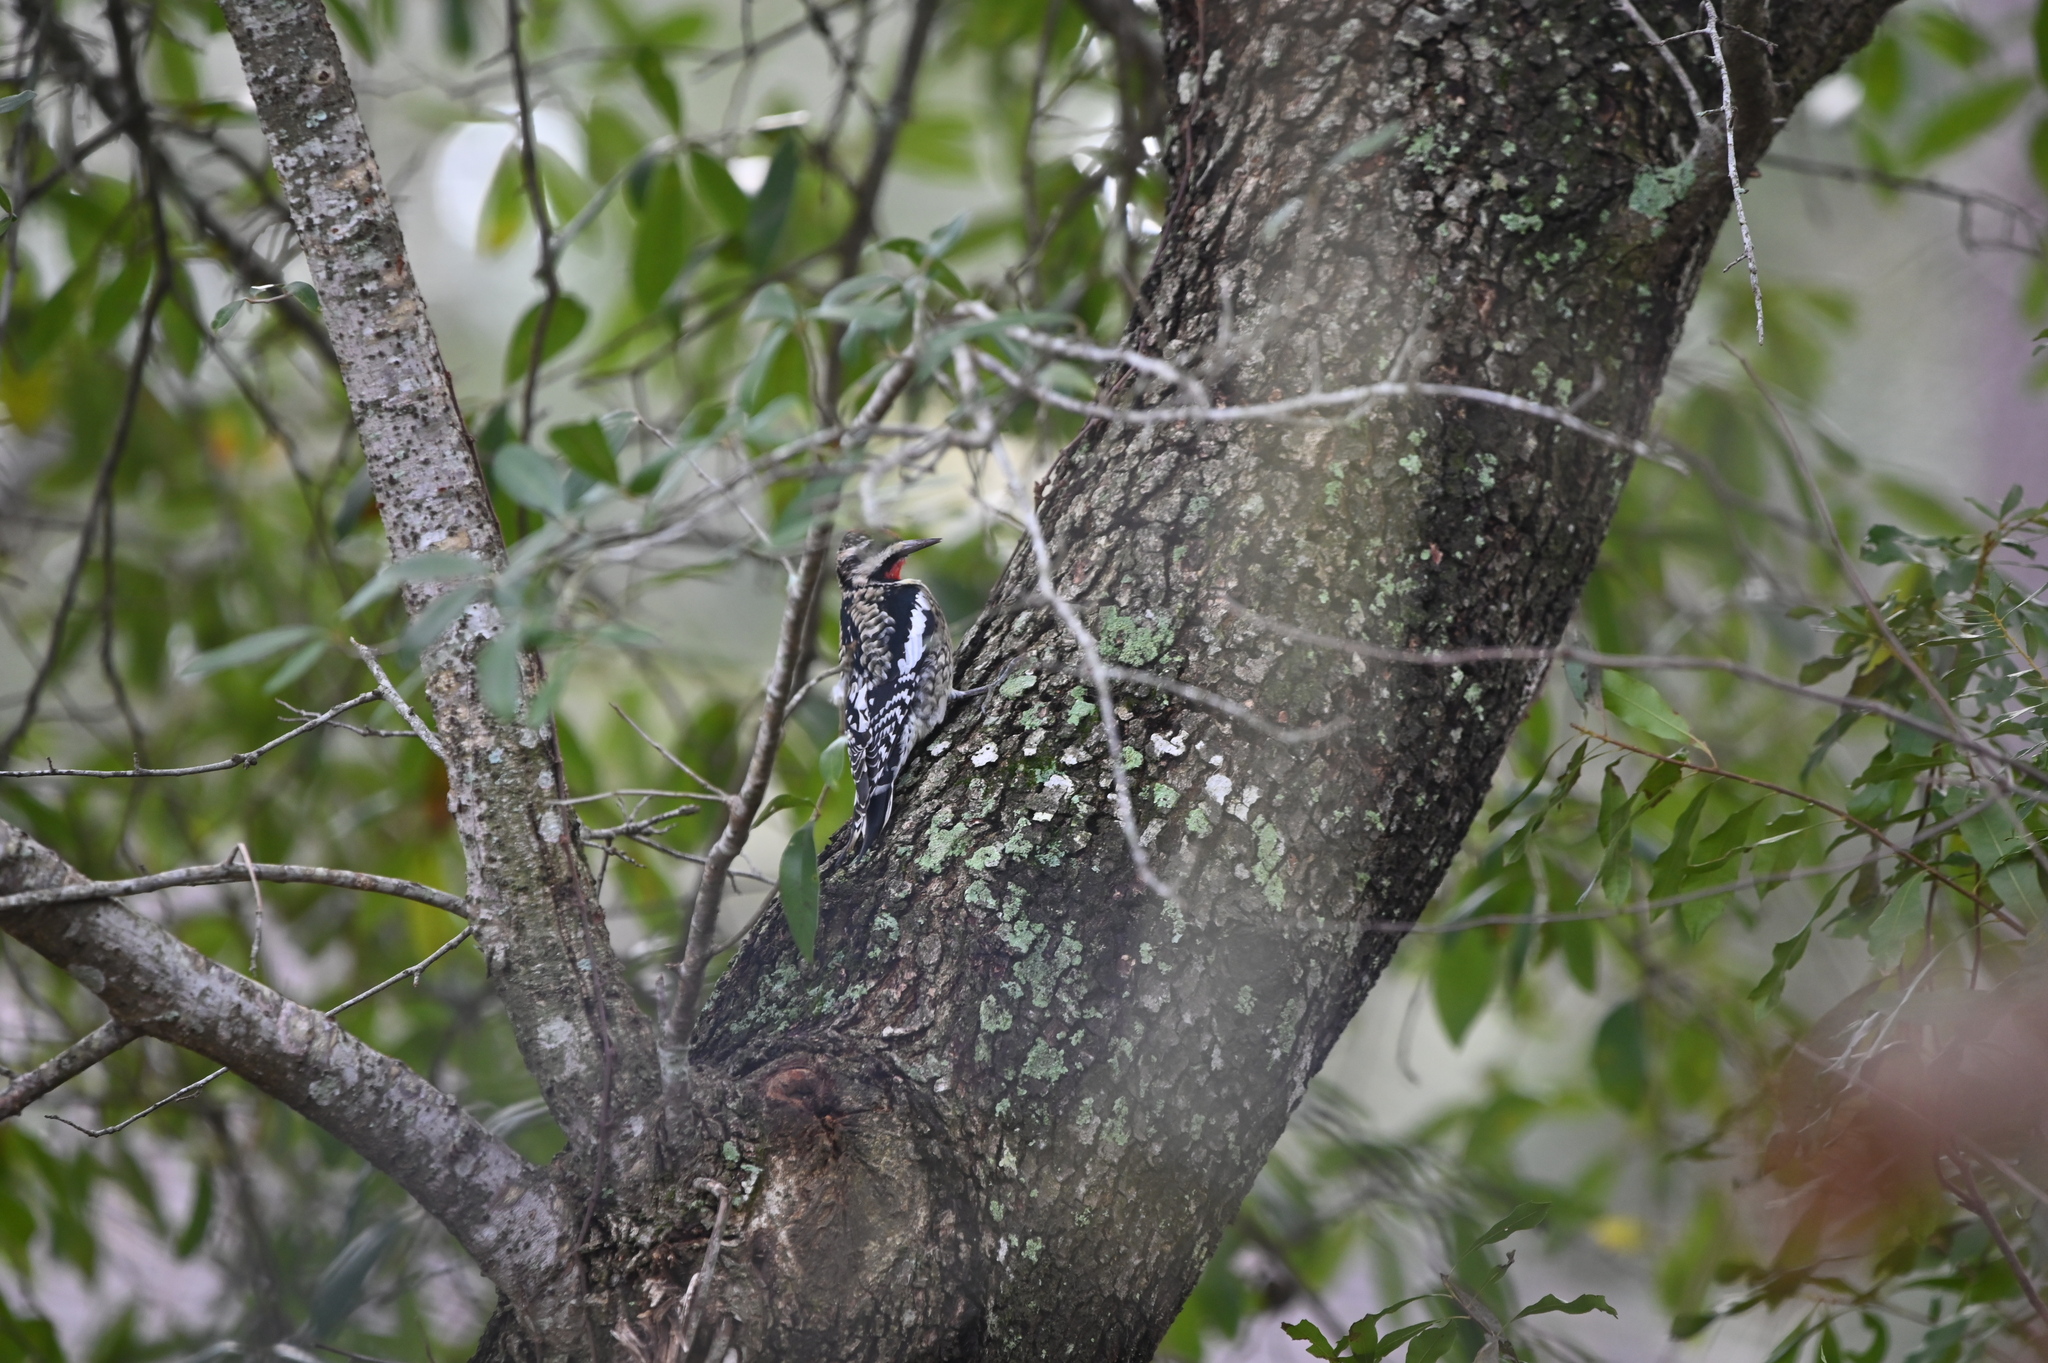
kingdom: Animalia
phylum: Chordata
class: Aves
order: Piciformes
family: Picidae
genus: Sphyrapicus
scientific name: Sphyrapicus varius
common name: Yellow-bellied sapsucker
